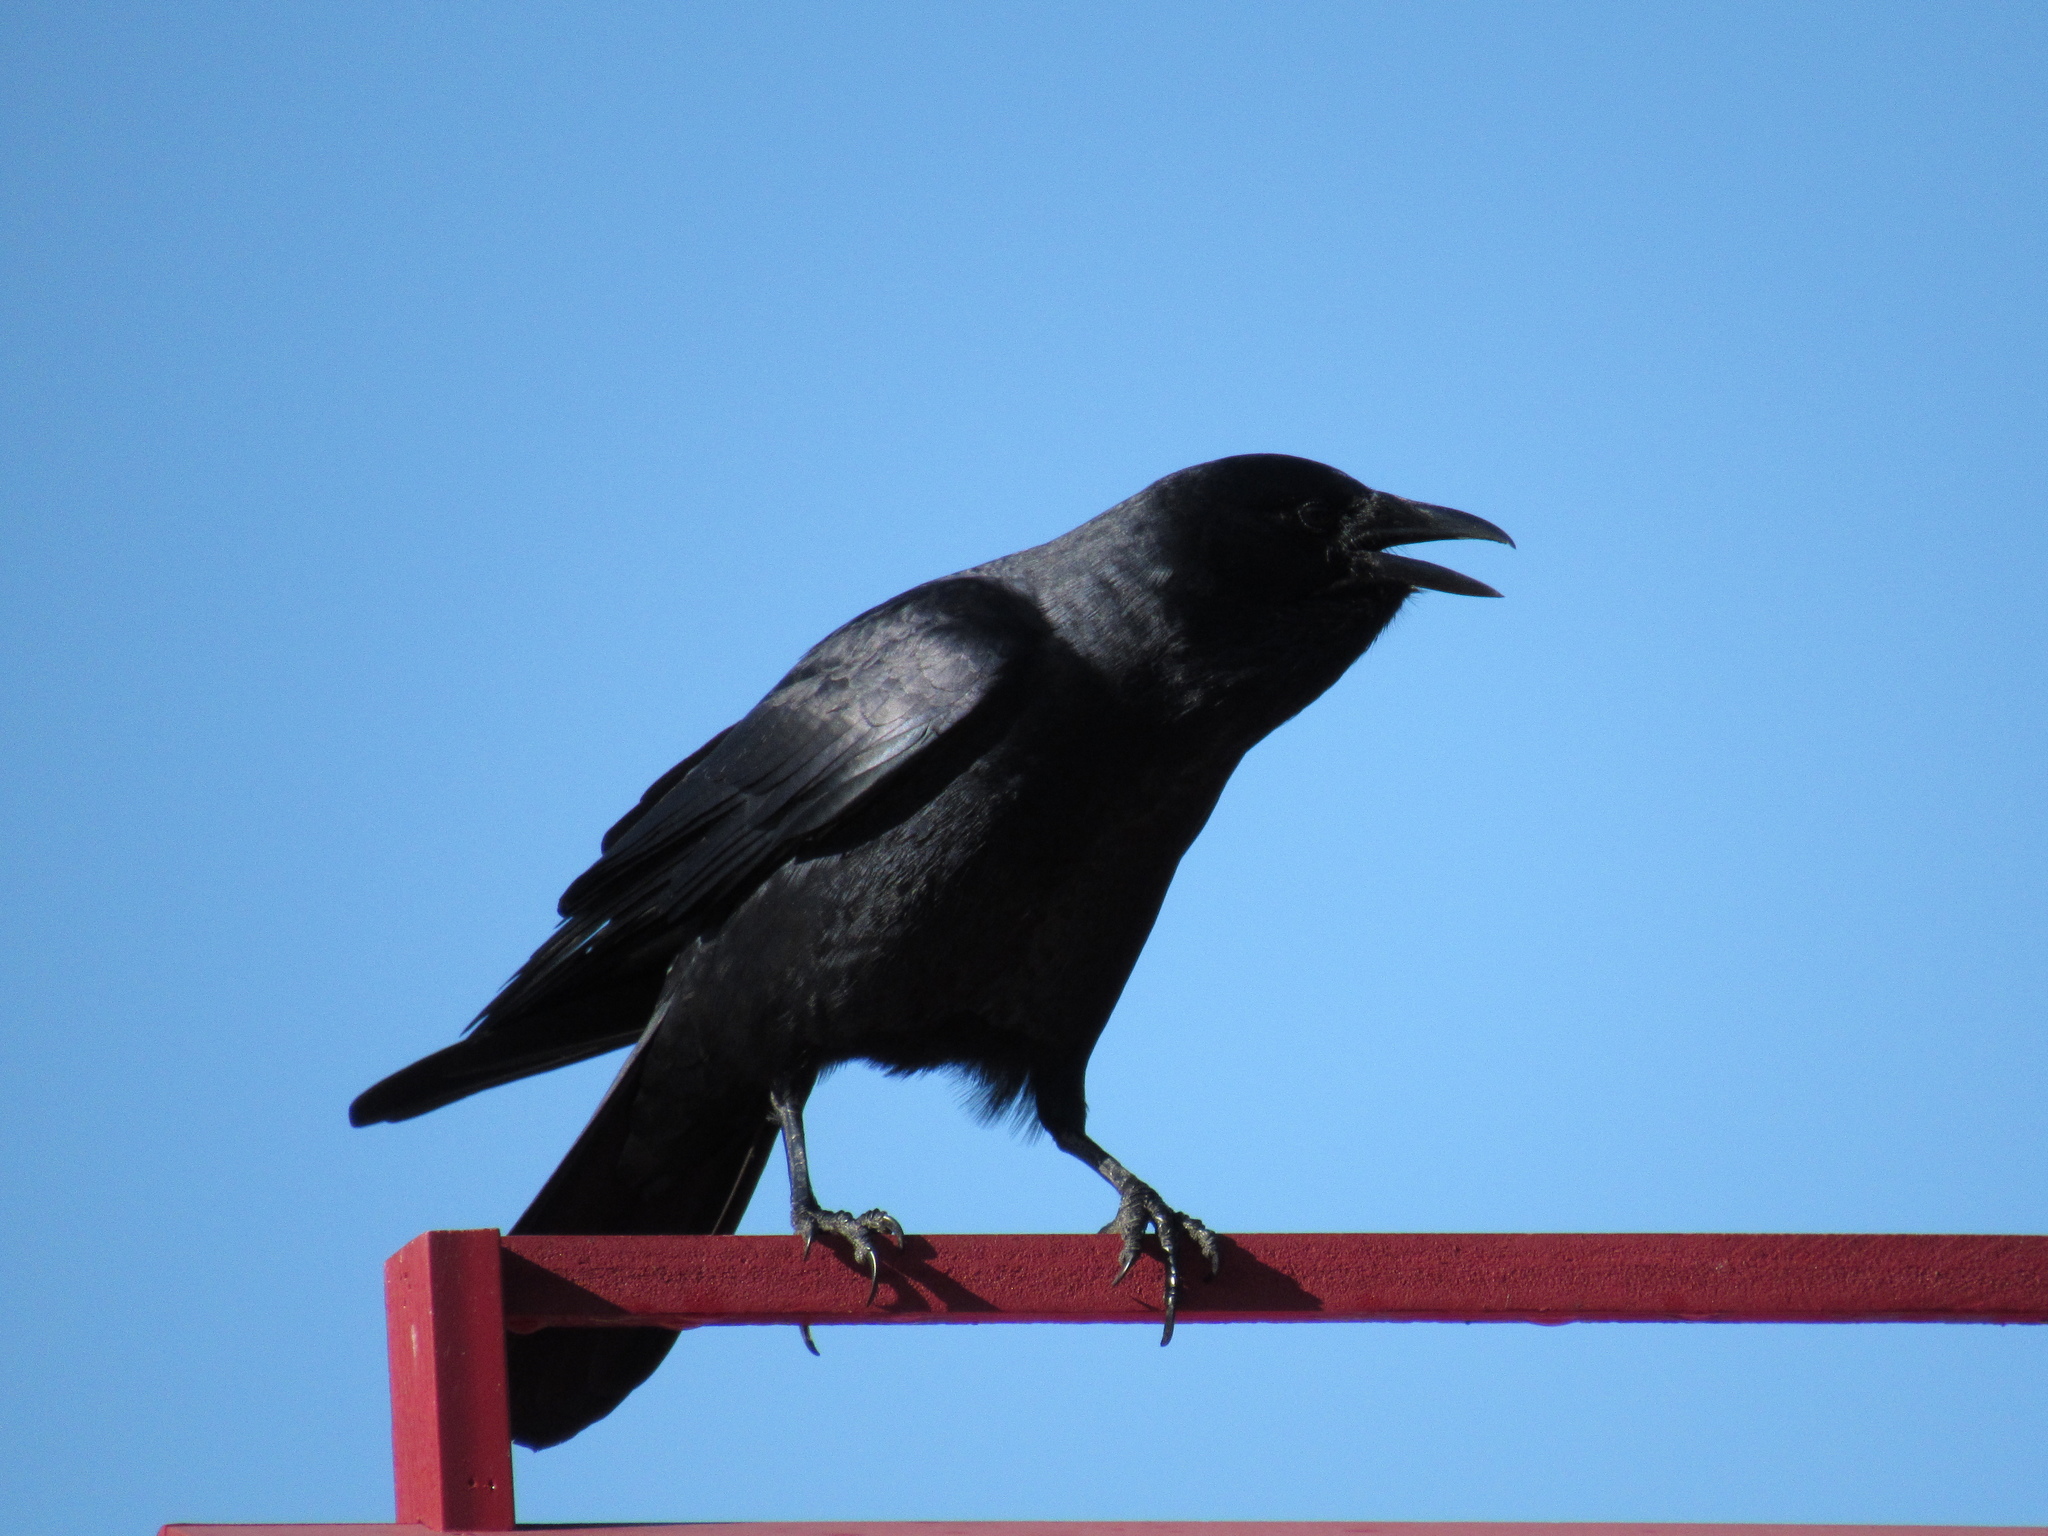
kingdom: Animalia
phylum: Chordata
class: Aves
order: Passeriformes
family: Corvidae
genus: Corvus
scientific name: Corvus
